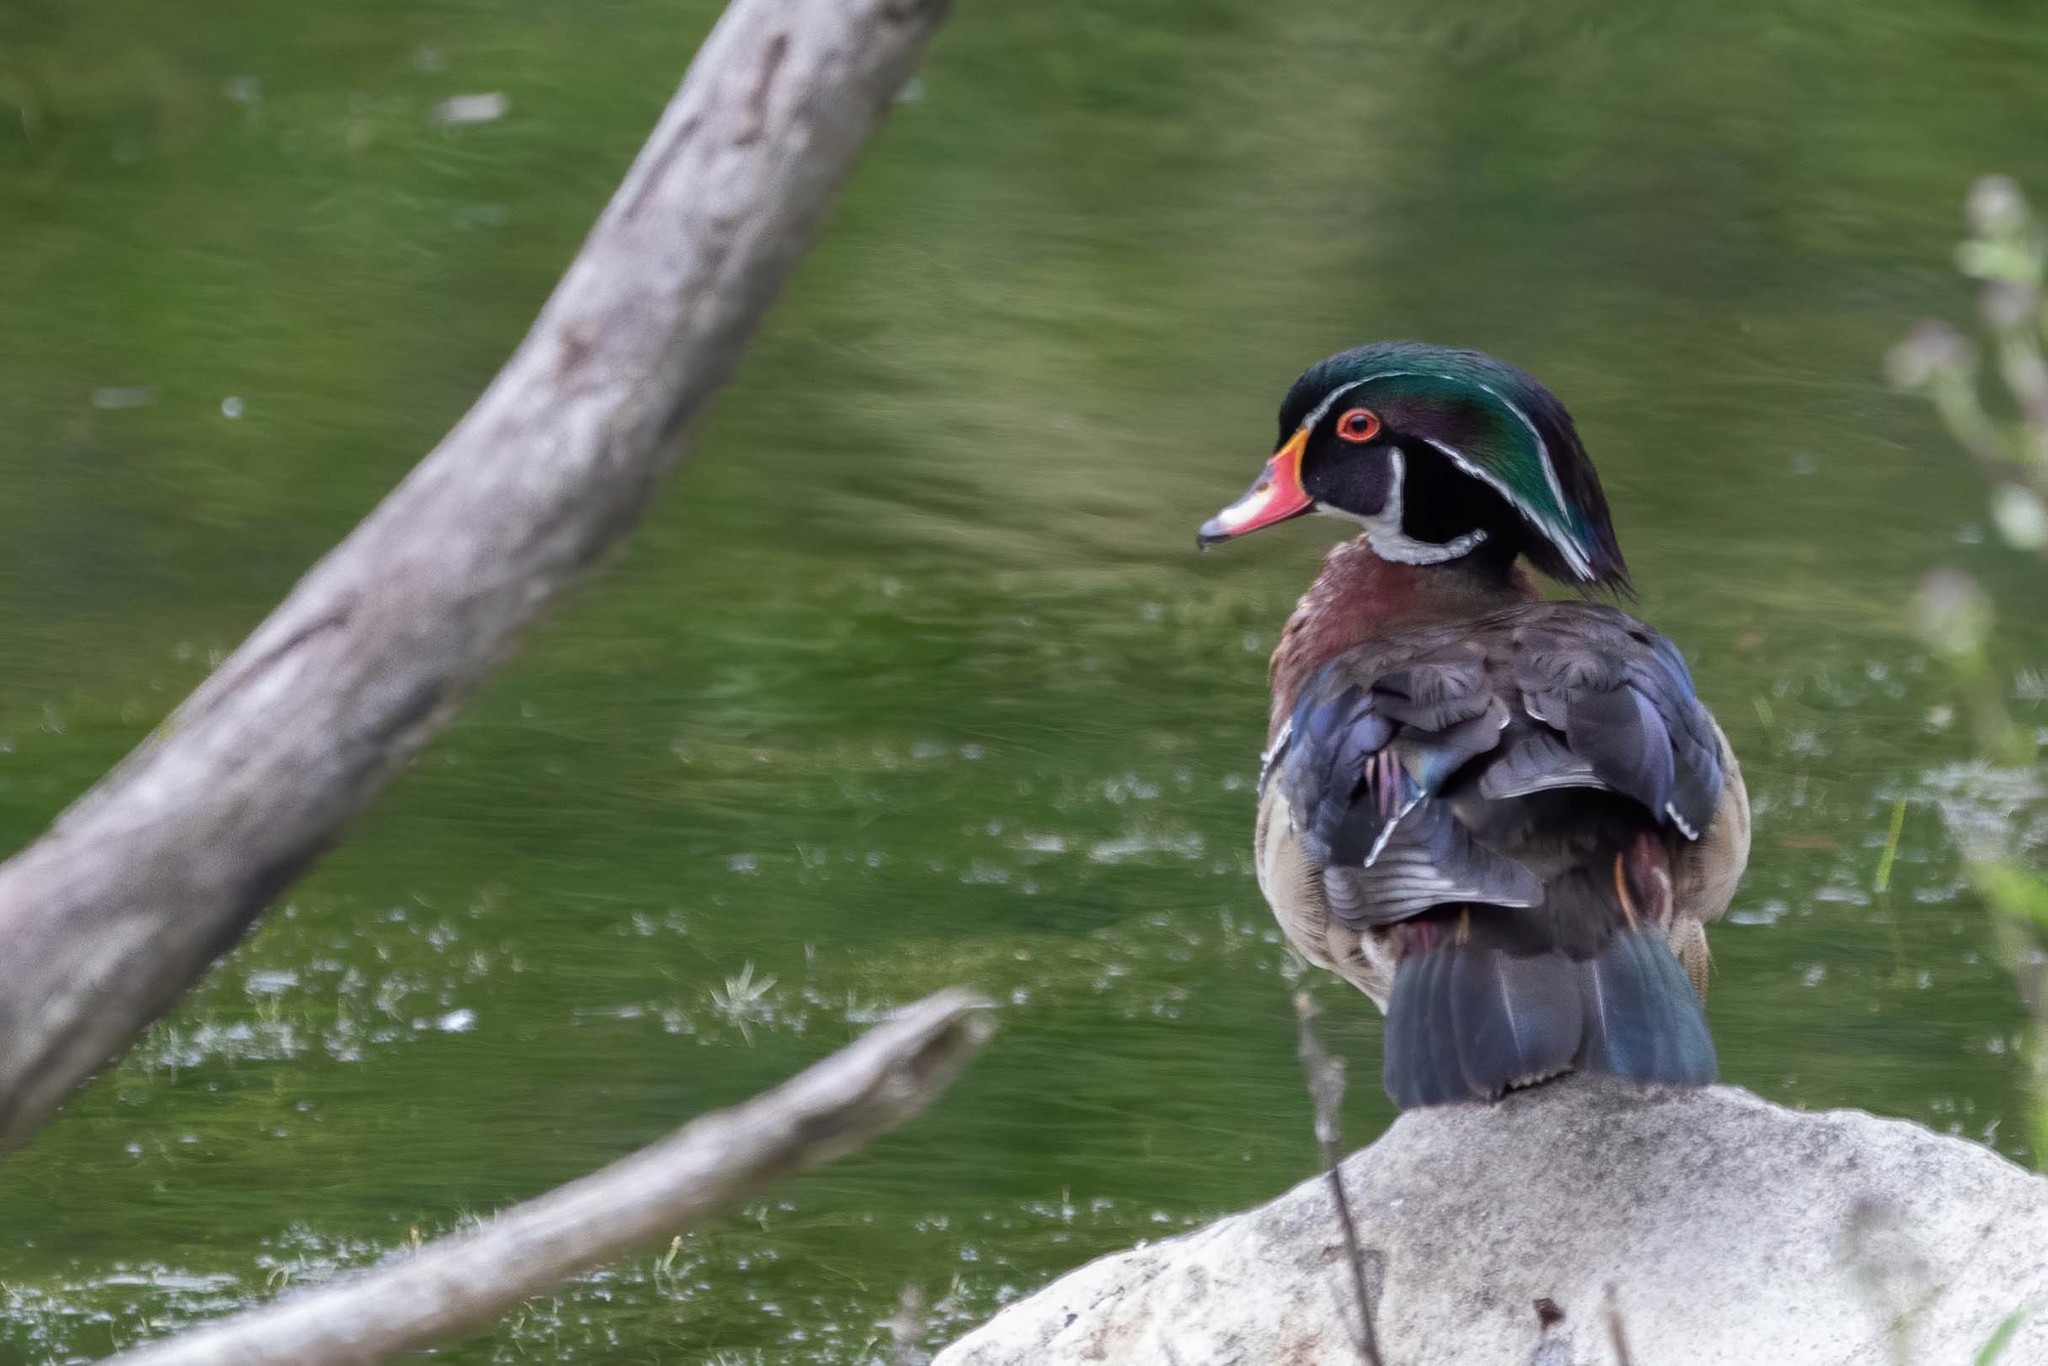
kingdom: Animalia
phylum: Chordata
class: Aves
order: Anseriformes
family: Anatidae
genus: Aix
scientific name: Aix sponsa
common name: Wood duck
